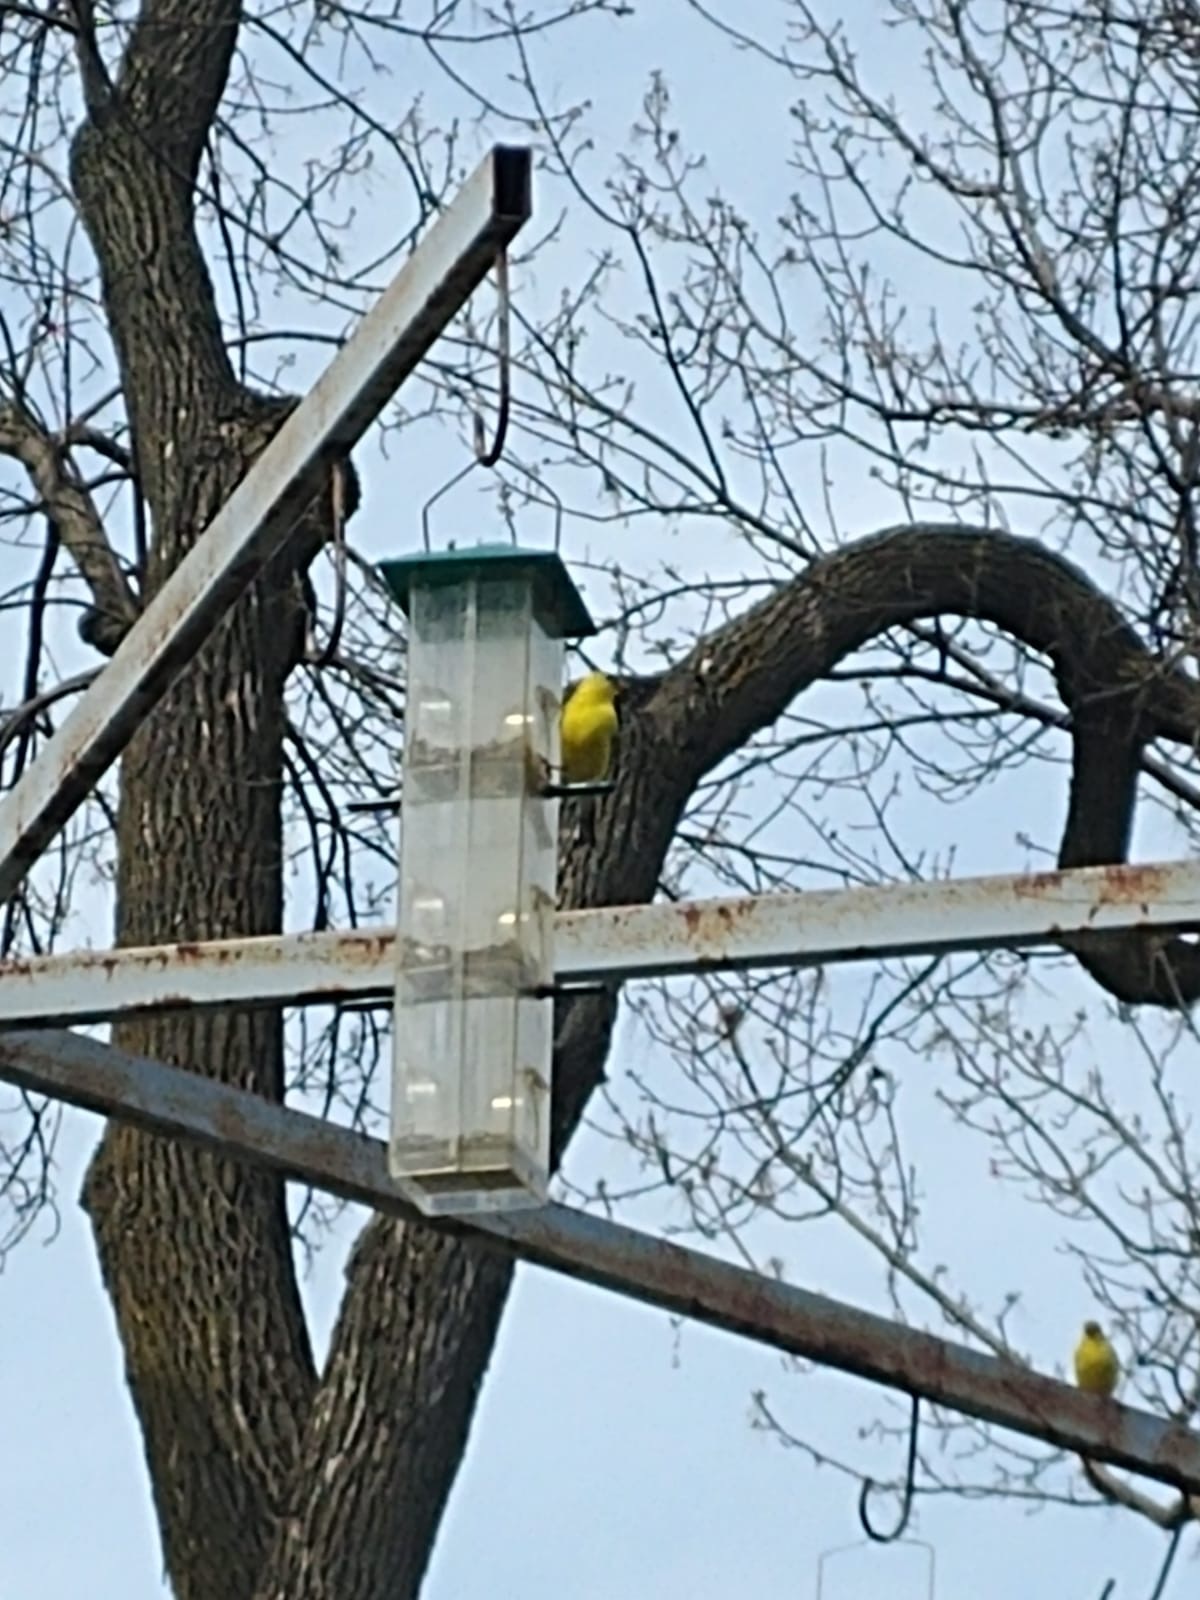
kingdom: Animalia
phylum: Chordata
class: Aves
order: Passeriformes
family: Fringillidae
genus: Spinus
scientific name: Spinus tristis
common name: American goldfinch
